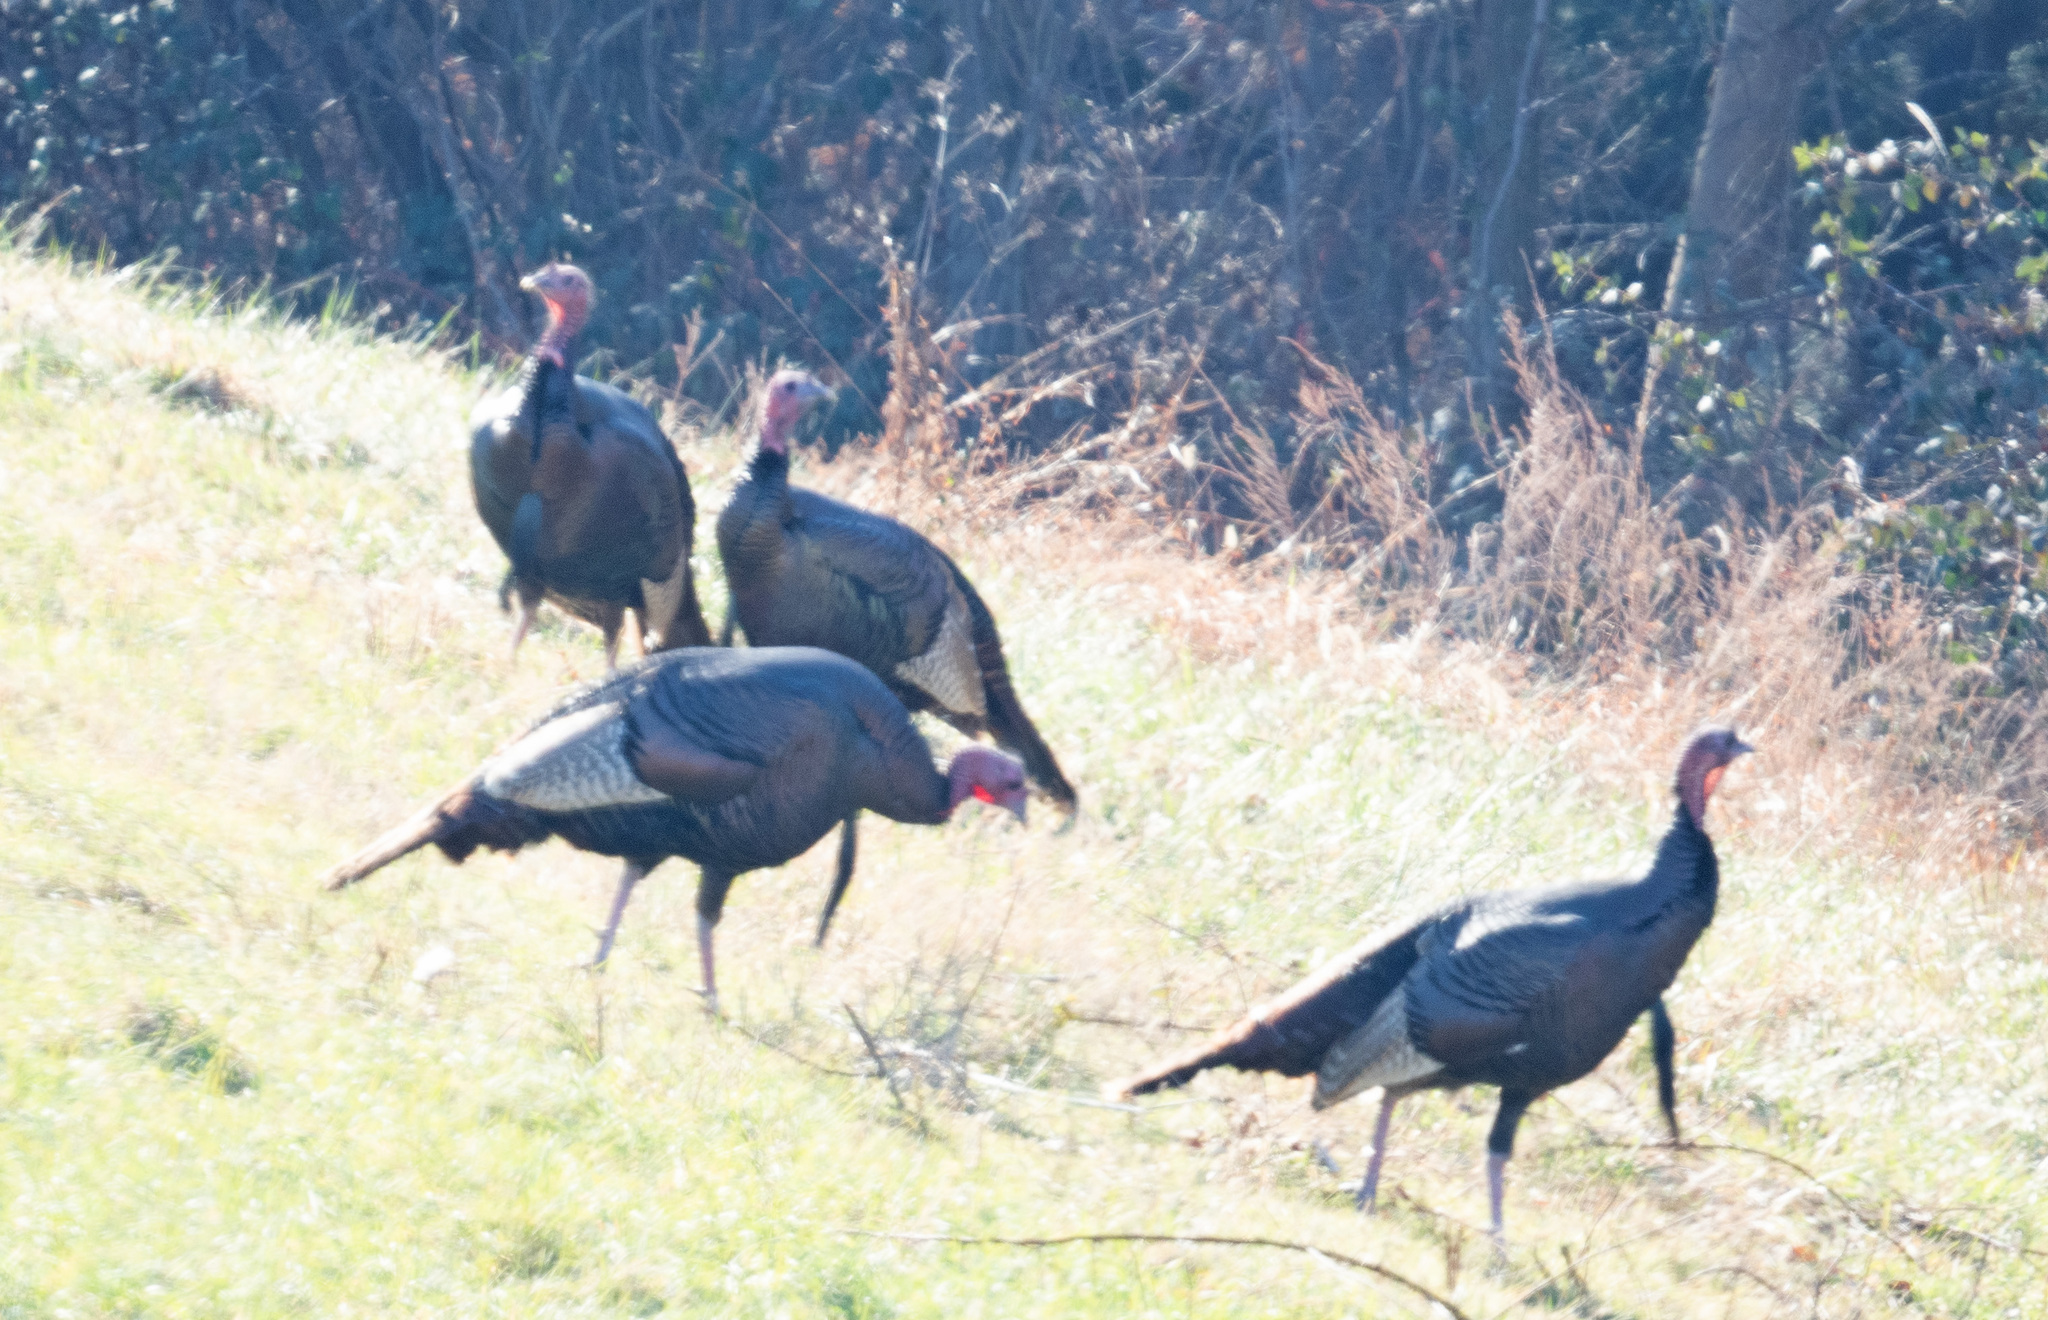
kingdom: Animalia
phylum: Chordata
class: Aves
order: Galliformes
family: Phasianidae
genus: Meleagris
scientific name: Meleagris gallopavo
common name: Wild turkey
